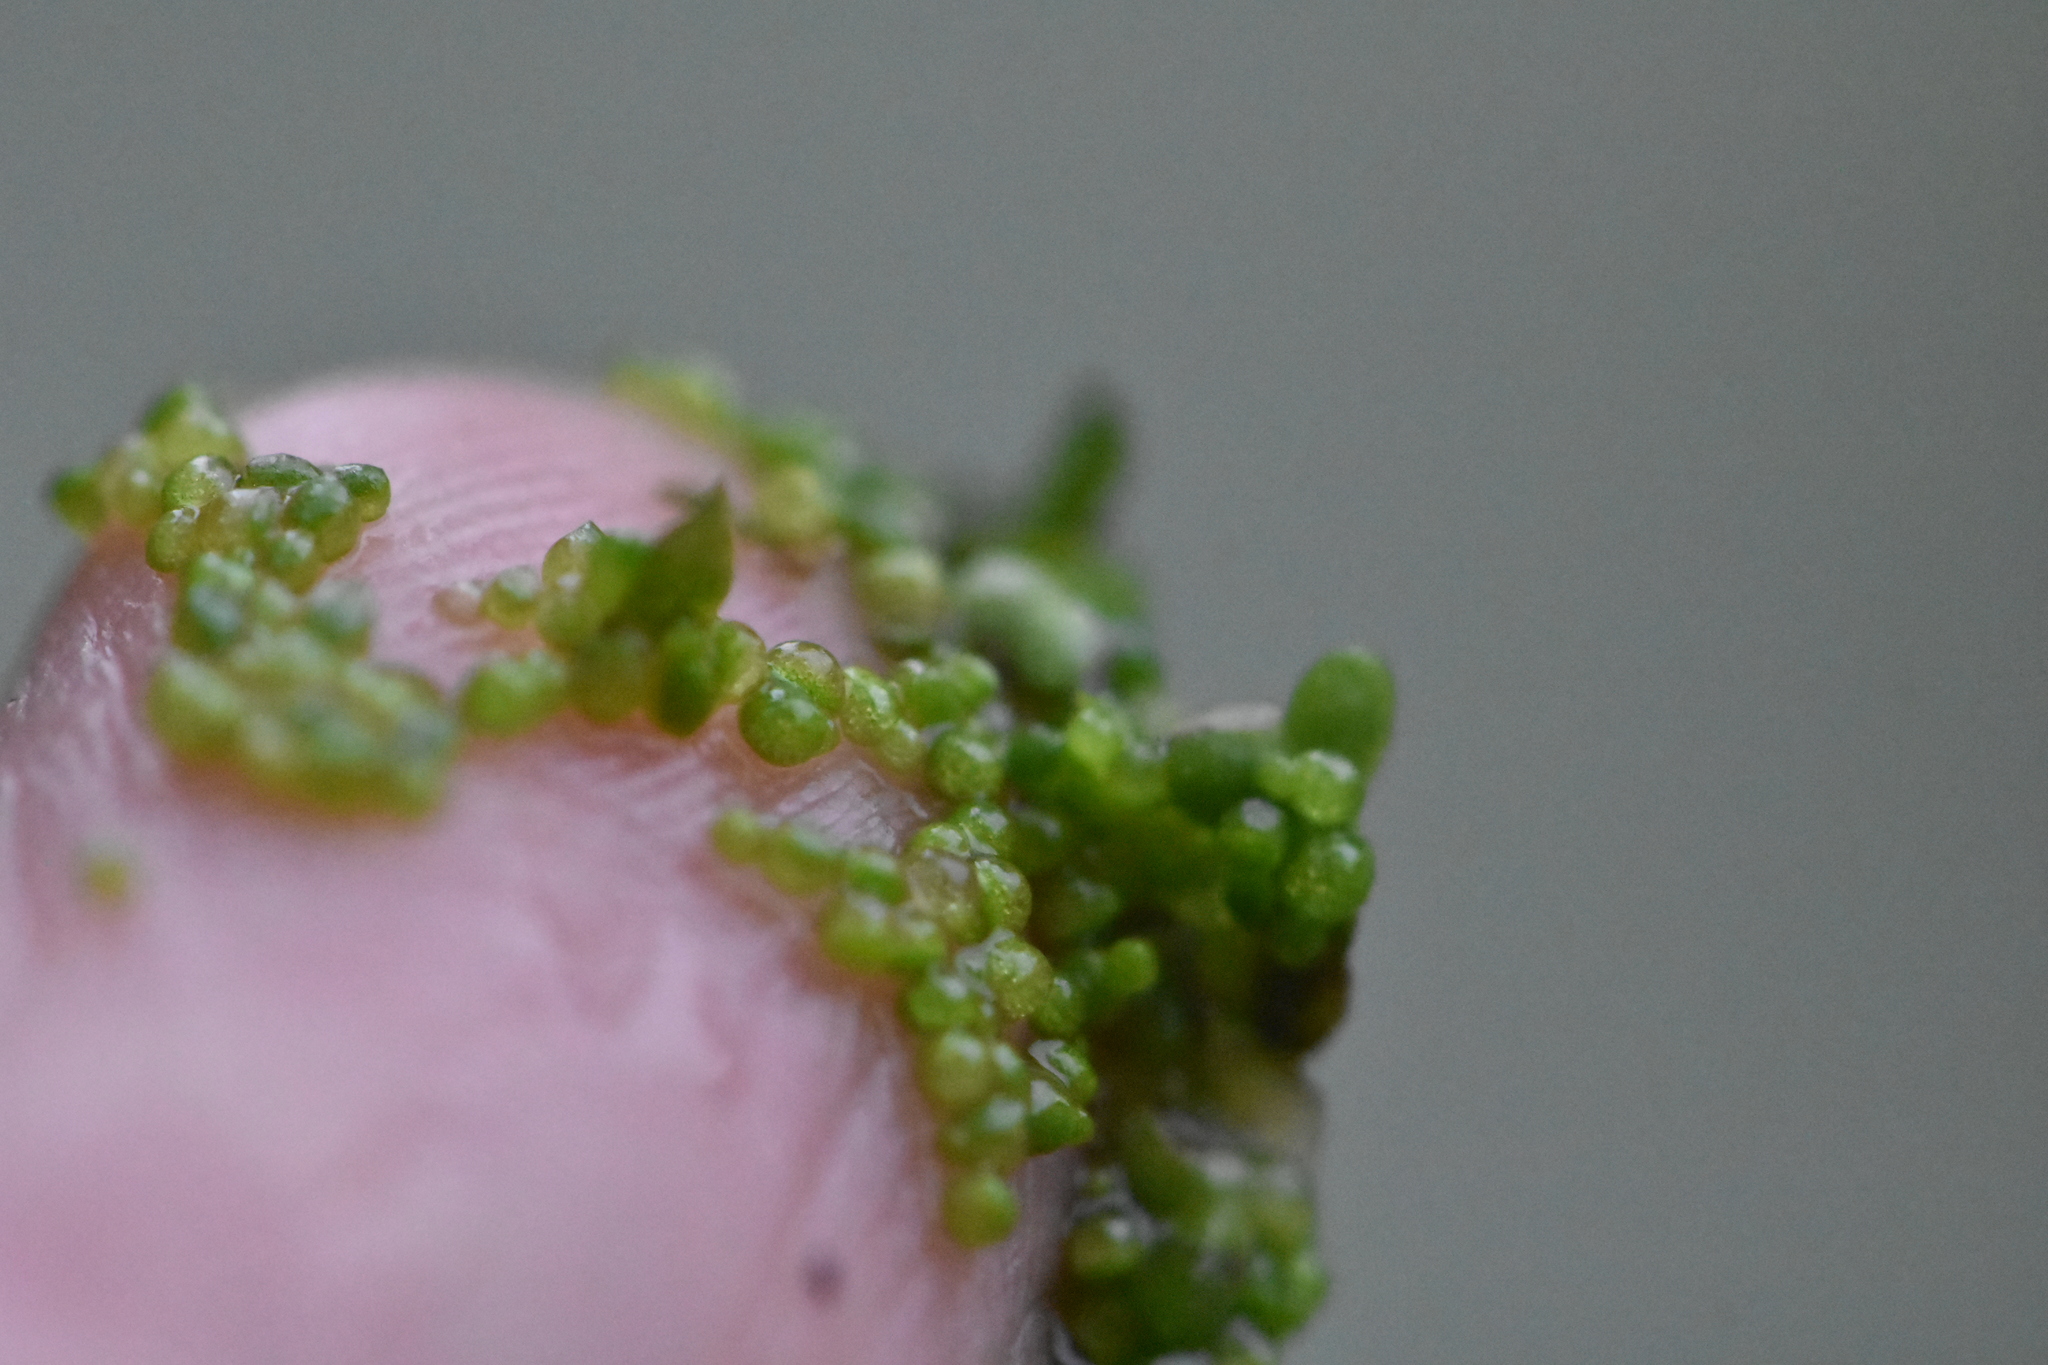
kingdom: Plantae
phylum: Tracheophyta
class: Liliopsida
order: Alismatales
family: Araceae
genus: Wolffia
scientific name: Wolffia arrhiza
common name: Rootless duckweed
